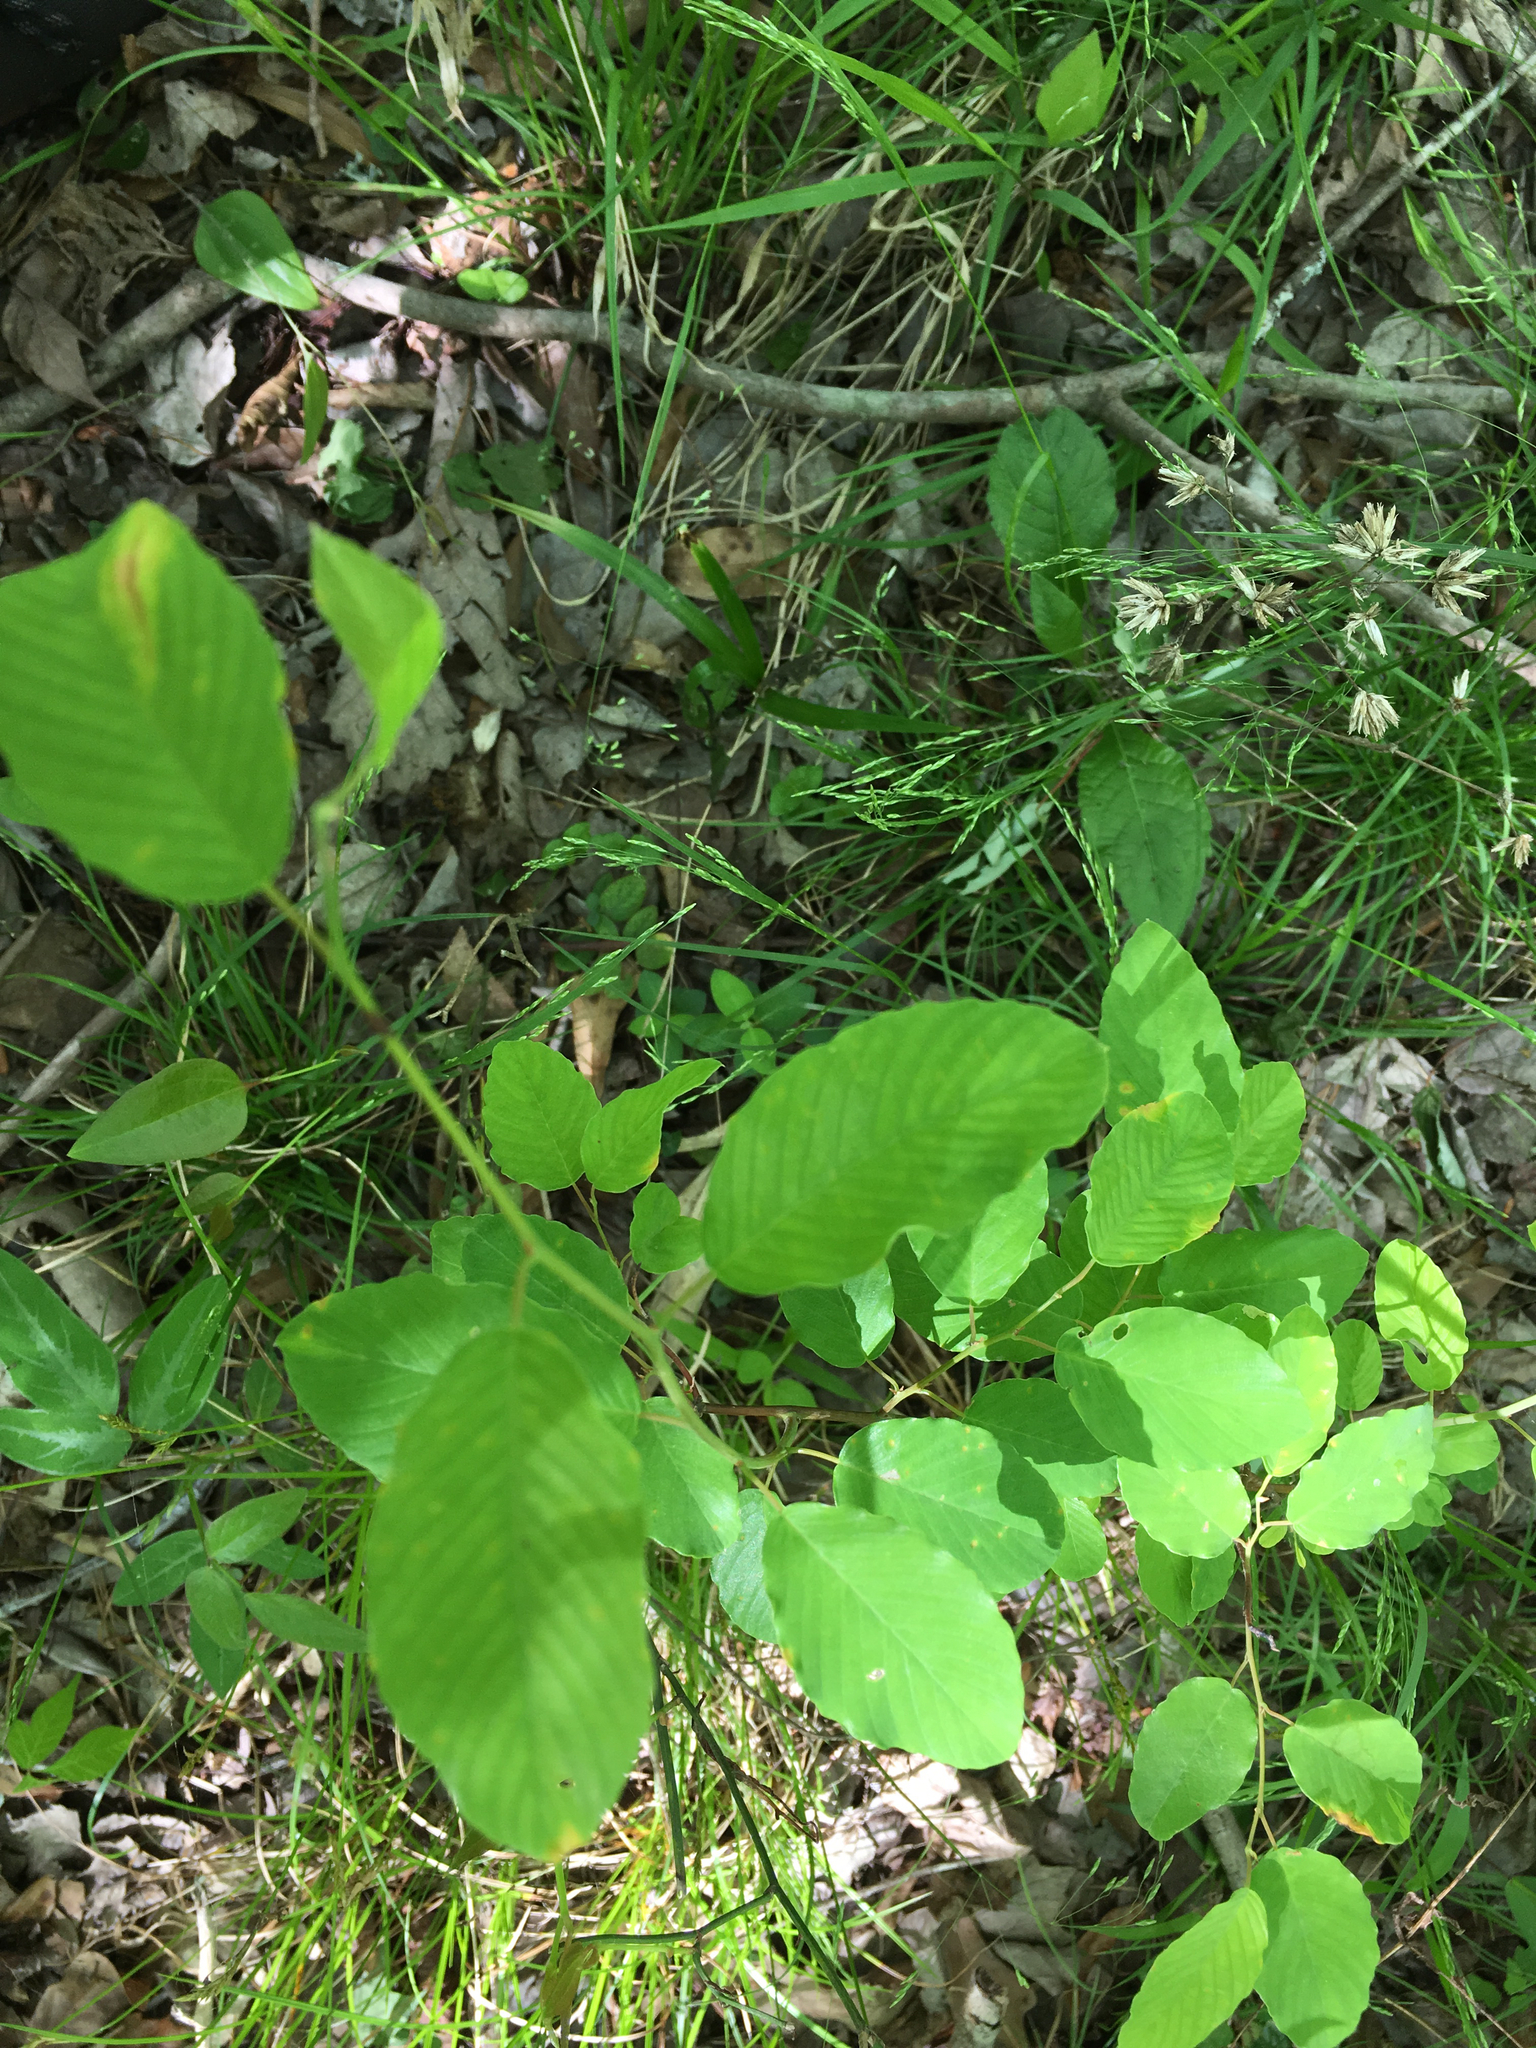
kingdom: Plantae
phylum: Tracheophyta
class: Magnoliopsida
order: Rosales
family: Rhamnaceae
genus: Berchemia
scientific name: Berchemia scandens
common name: Supplejack
